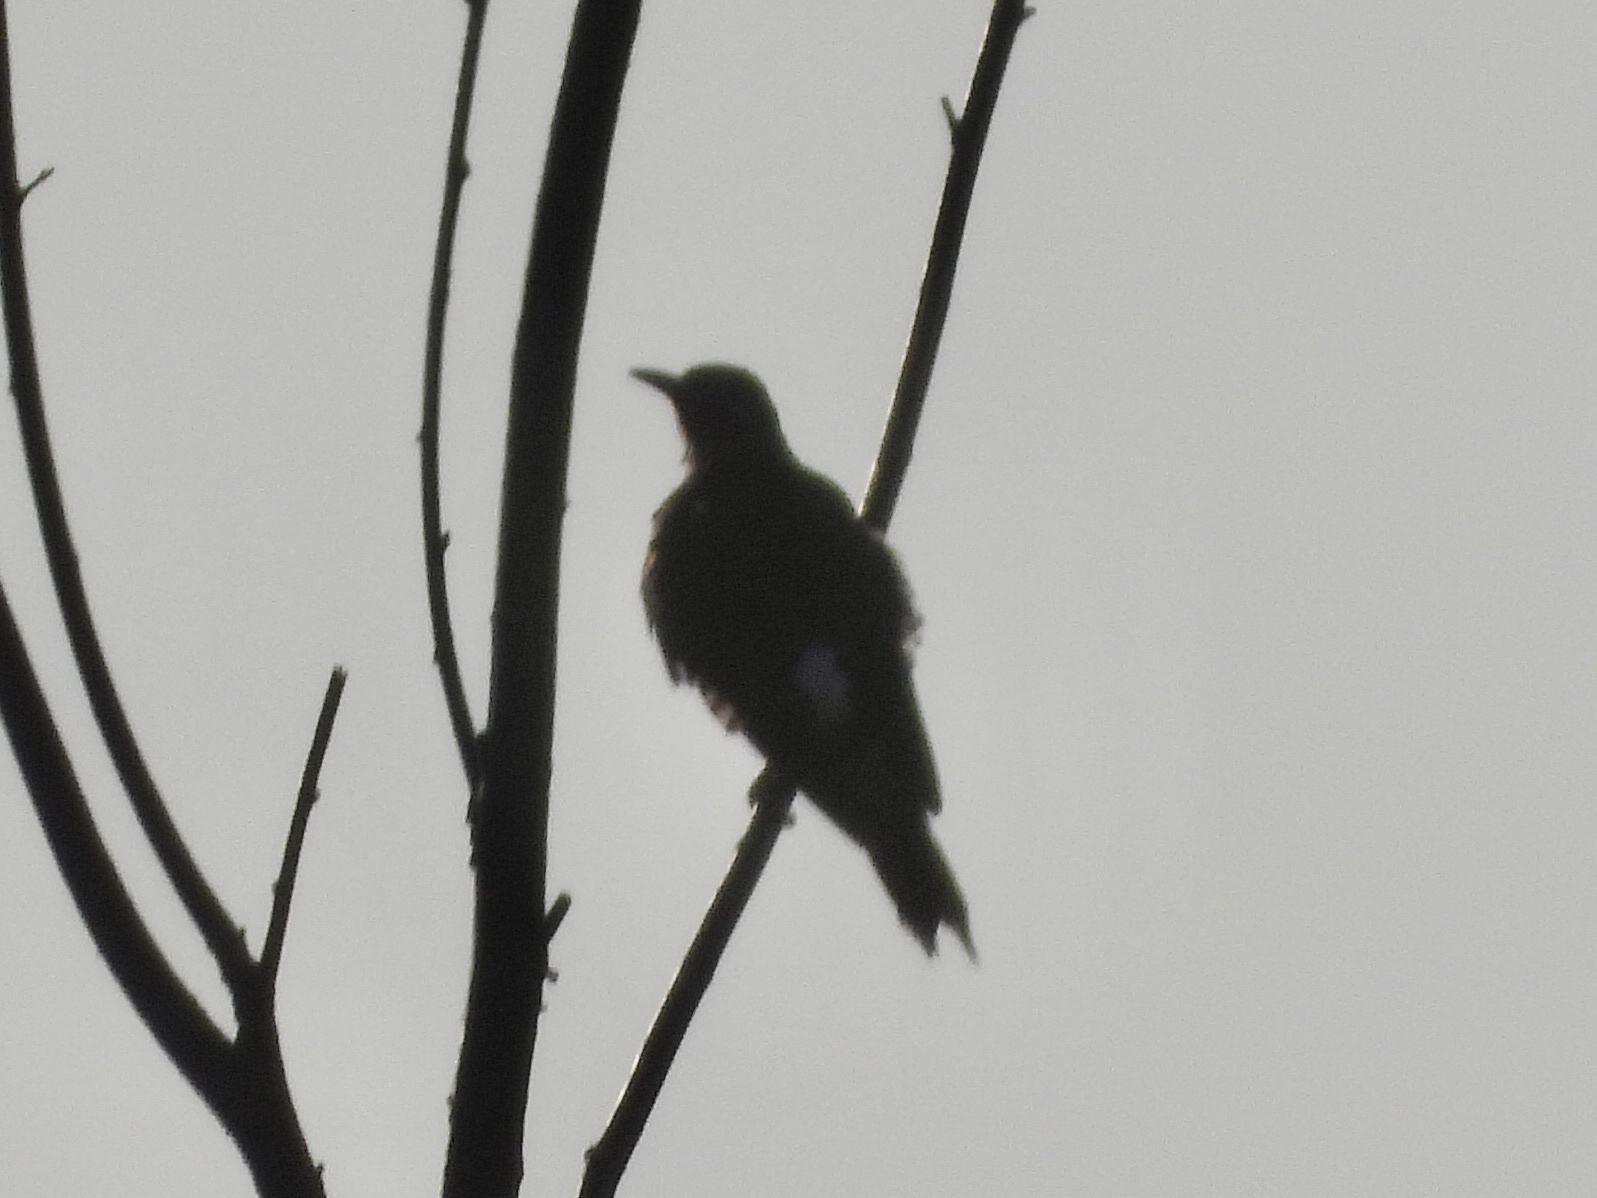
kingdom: Animalia
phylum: Chordata
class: Aves
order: Piciformes
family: Picidae
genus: Colaptes
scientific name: Colaptes auratus
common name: Northern flicker
